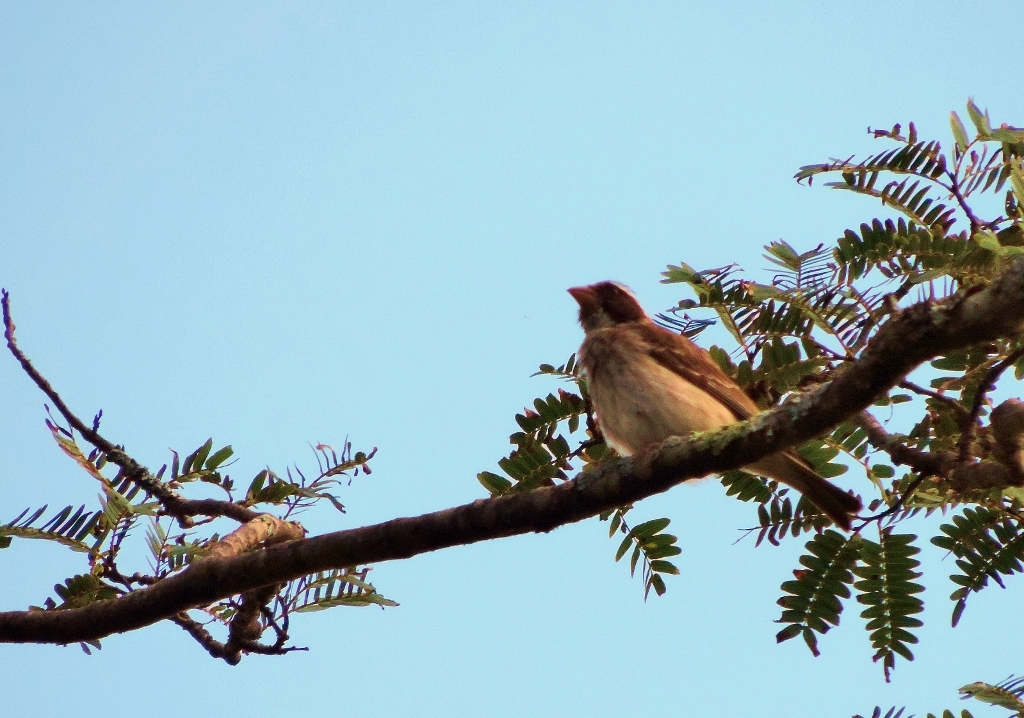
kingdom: Animalia
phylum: Chordata
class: Aves
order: Passeriformes
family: Fringillidae
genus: Crithagra
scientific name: Crithagra mennelli
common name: Black-eared seedeater
